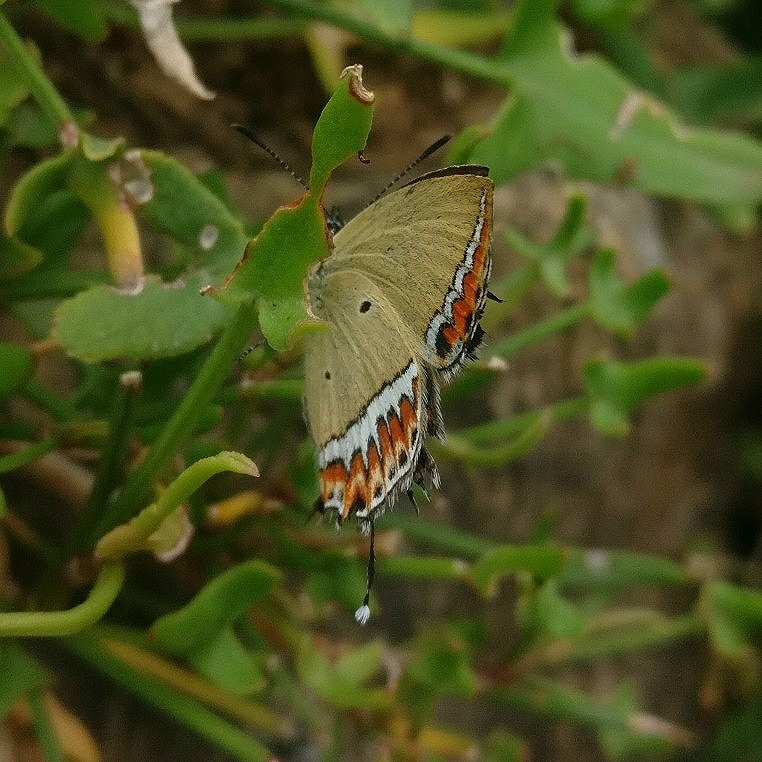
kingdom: Animalia
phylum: Arthropoda
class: Insecta
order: Lepidoptera
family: Lycaenidae
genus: Heliophorus
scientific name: Heliophorus sena
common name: Sorrel sapphire
